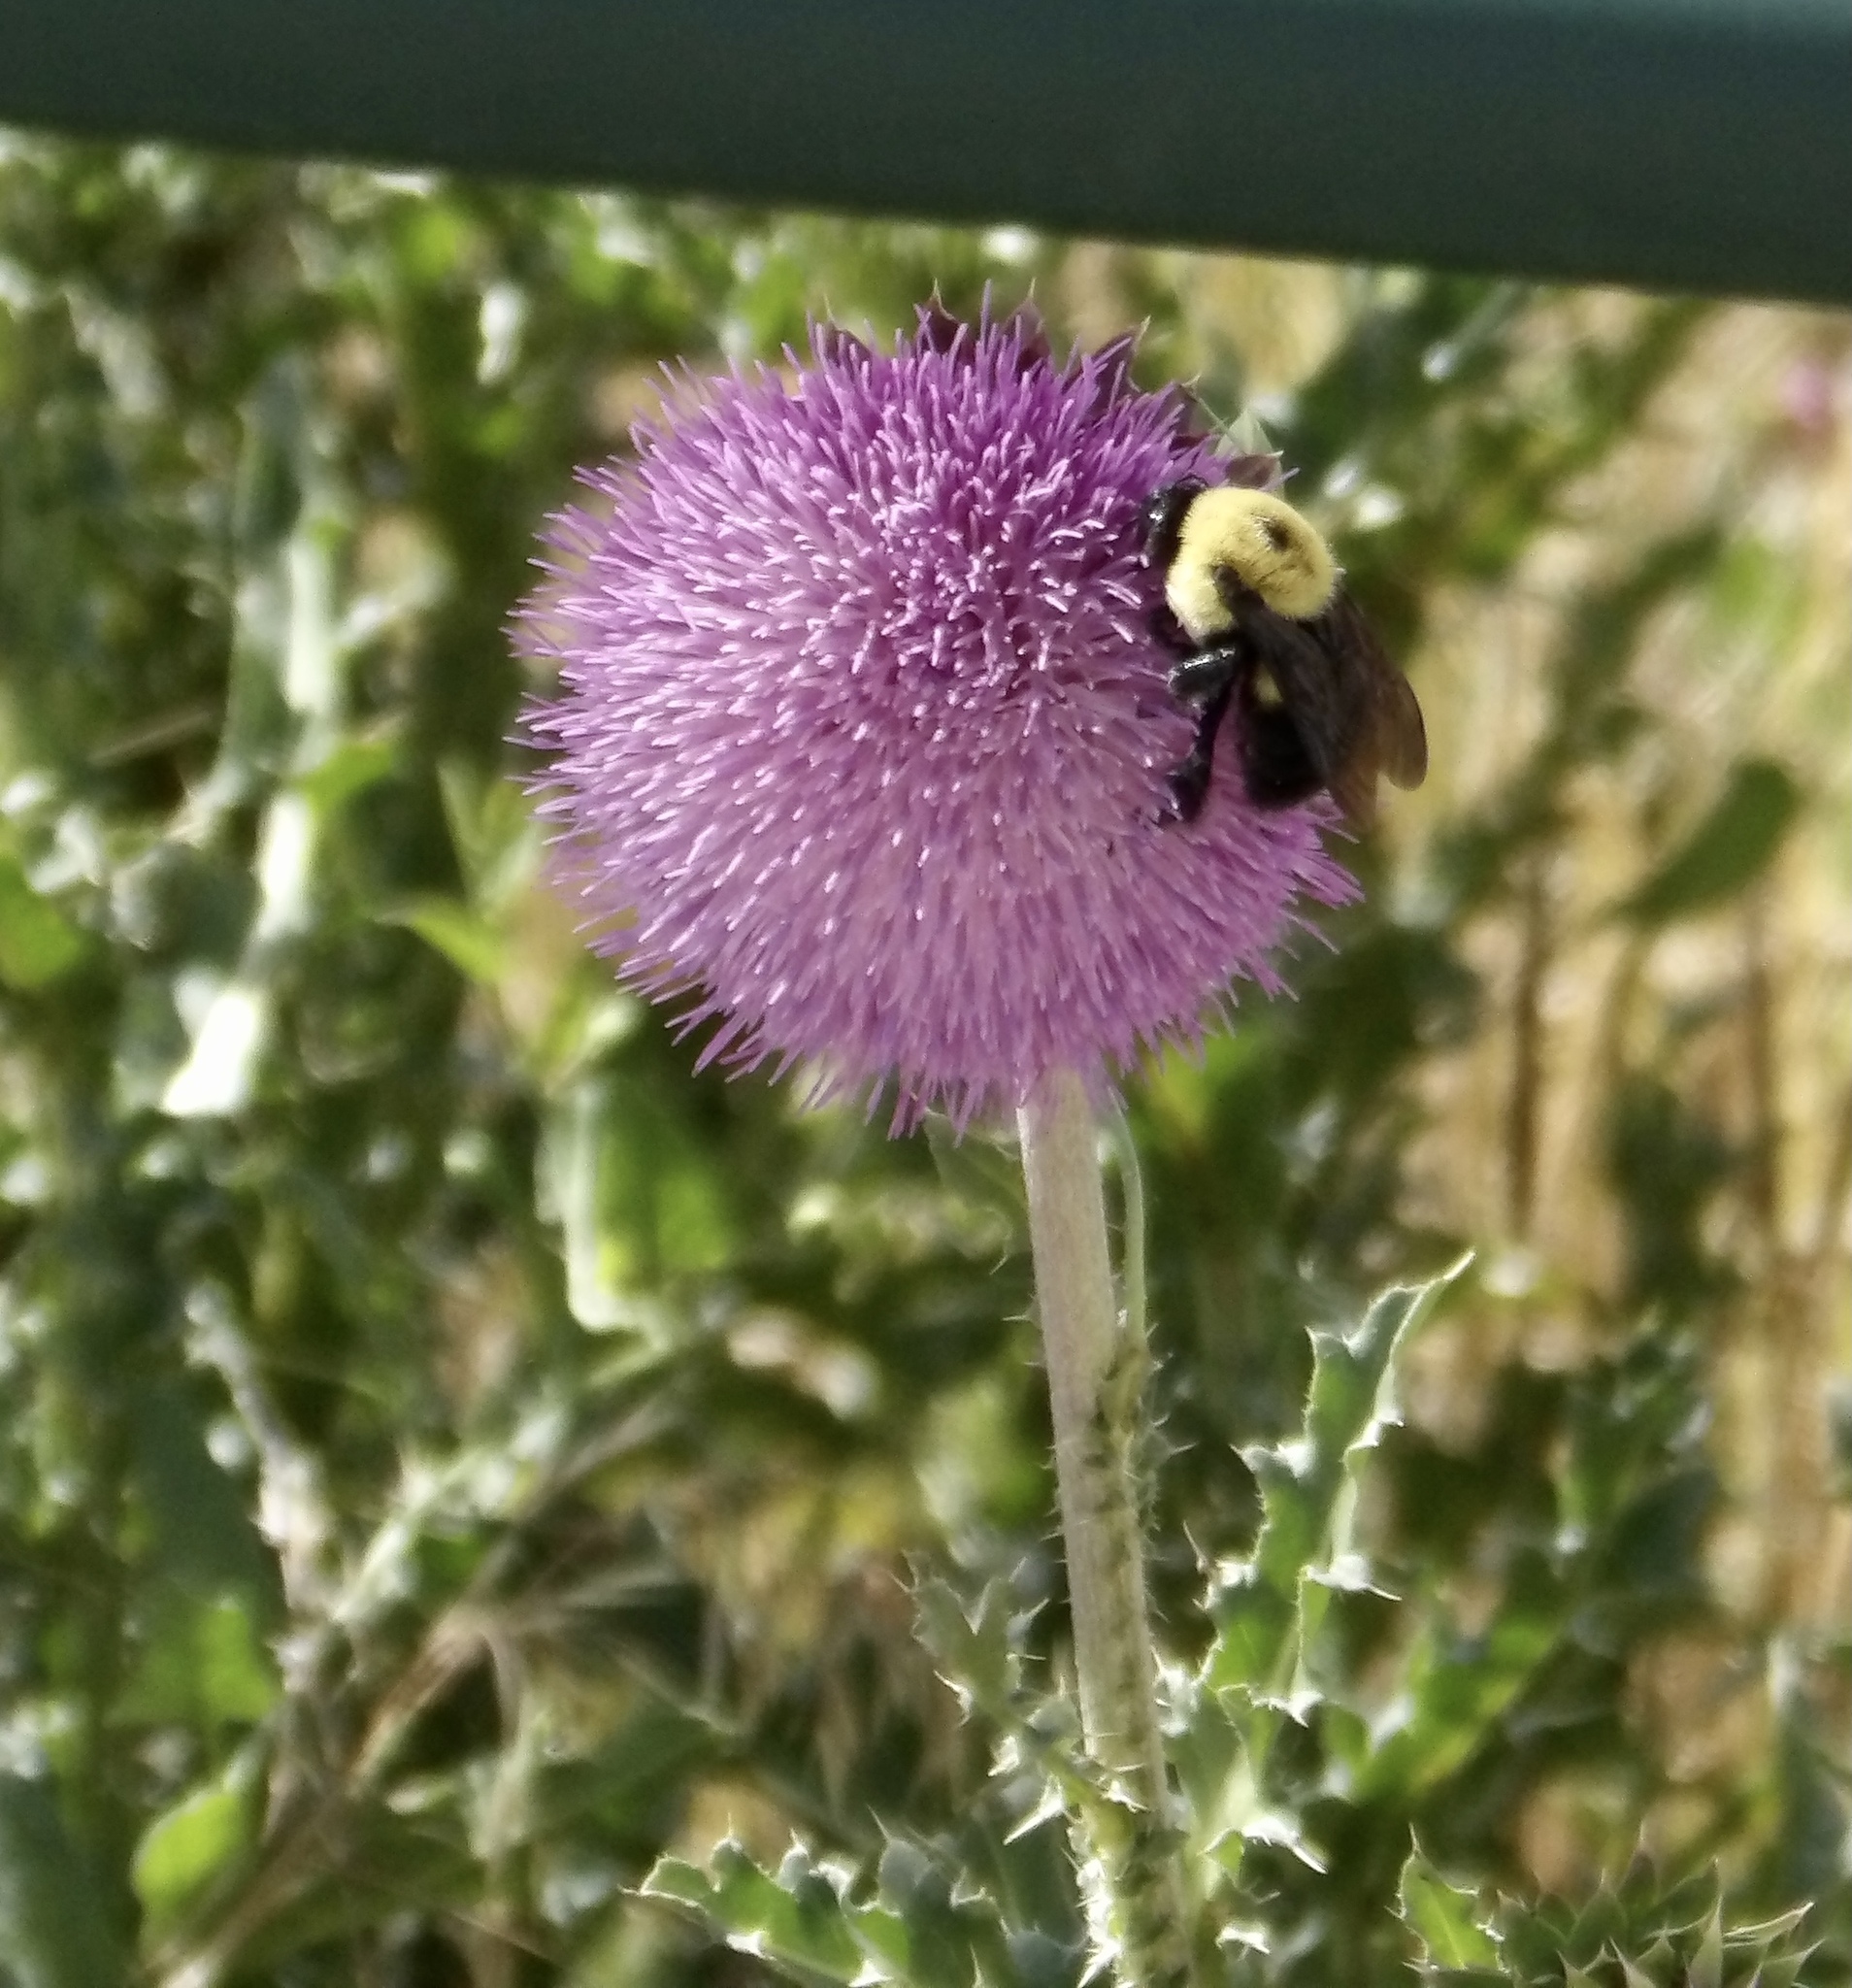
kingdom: Animalia
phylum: Arthropoda
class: Insecta
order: Hymenoptera
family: Apidae
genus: Bombus
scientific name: Bombus griseocollis
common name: Brown-belted bumble bee
